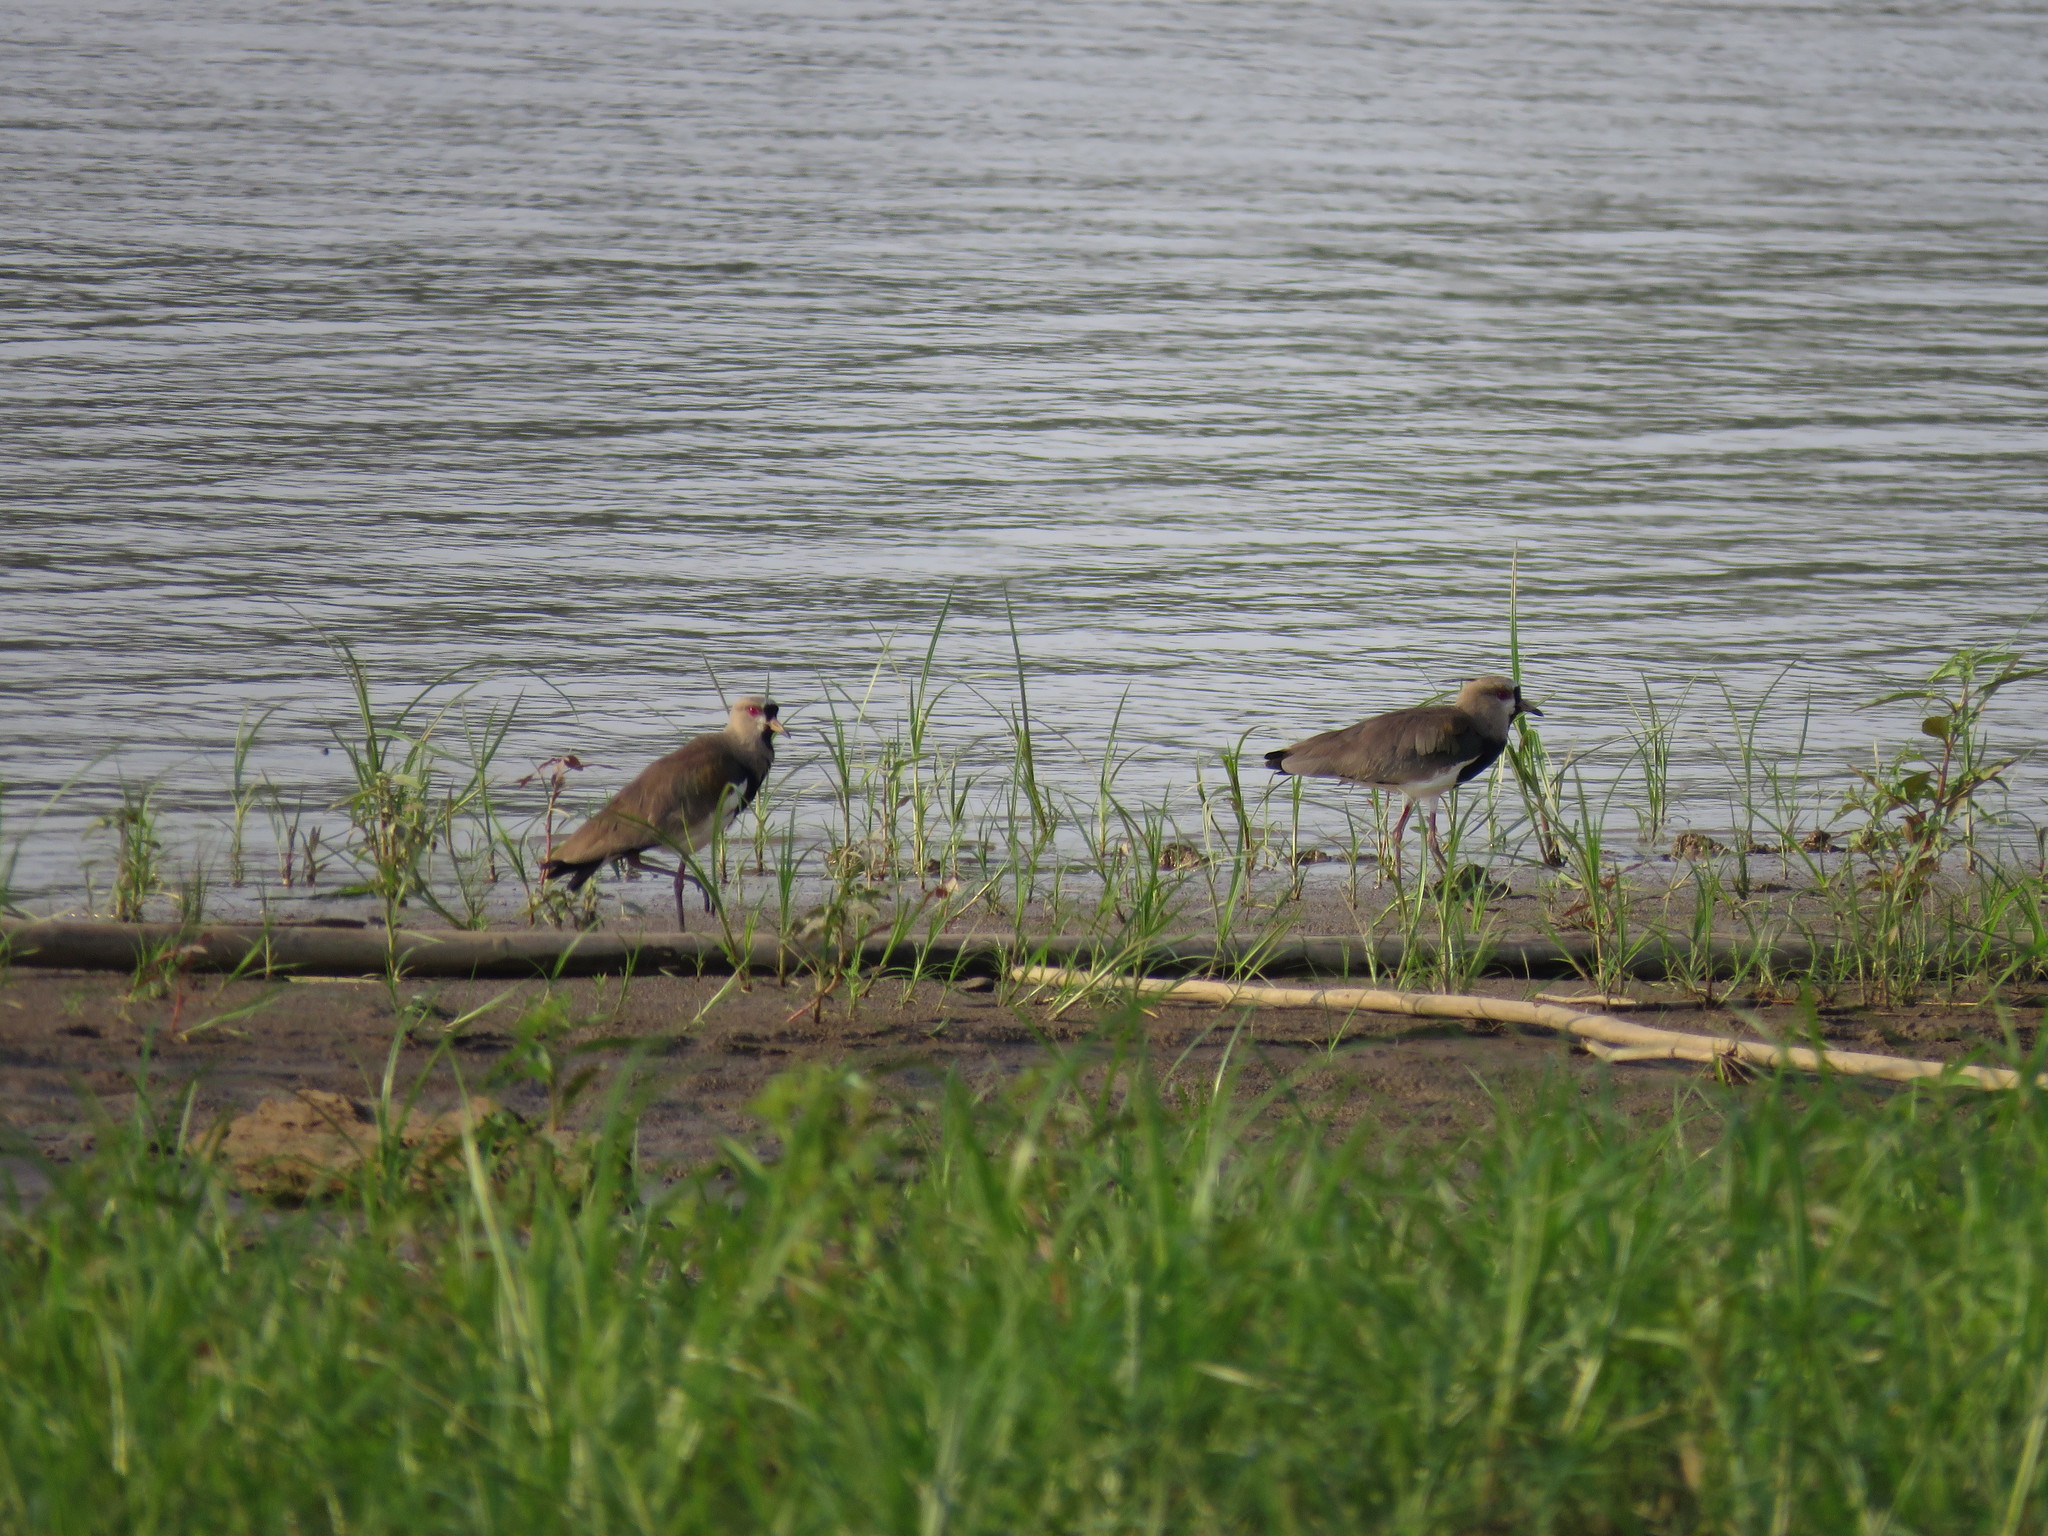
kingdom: Animalia
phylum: Chordata
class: Aves
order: Charadriiformes
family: Charadriidae
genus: Vanellus
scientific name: Vanellus chilensis
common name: Southern lapwing
